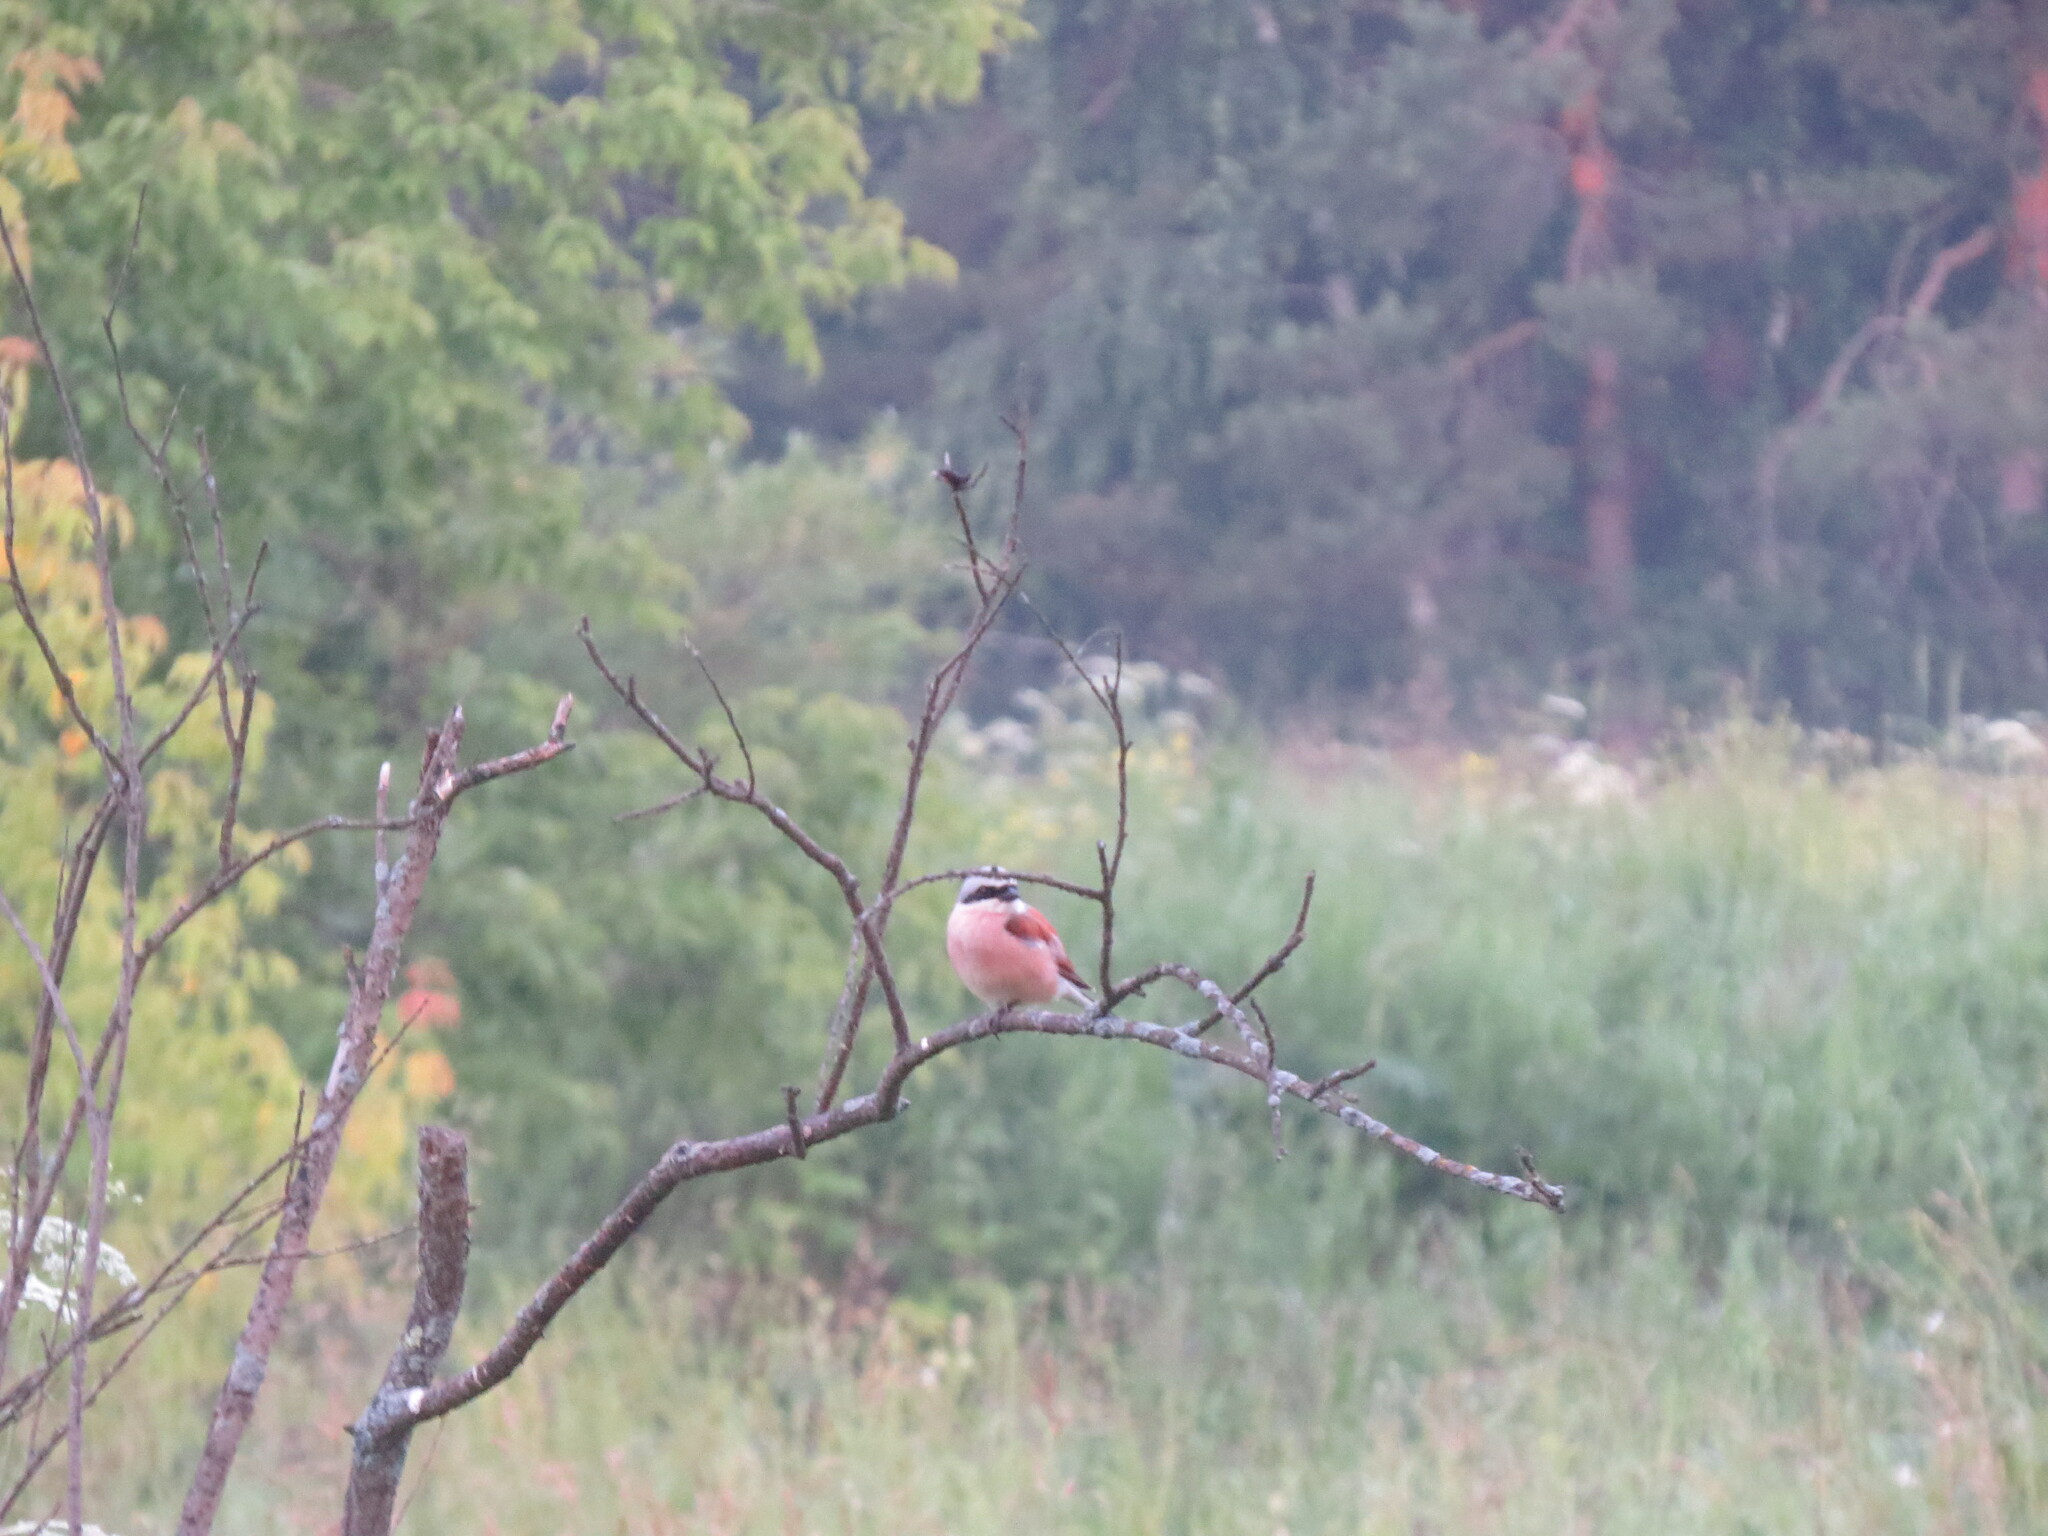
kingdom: Animalia
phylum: Chordata
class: Aves
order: Passeriformes
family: Laniidae
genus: Lanius
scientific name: Lanius collurio
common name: Red-backed shrike
